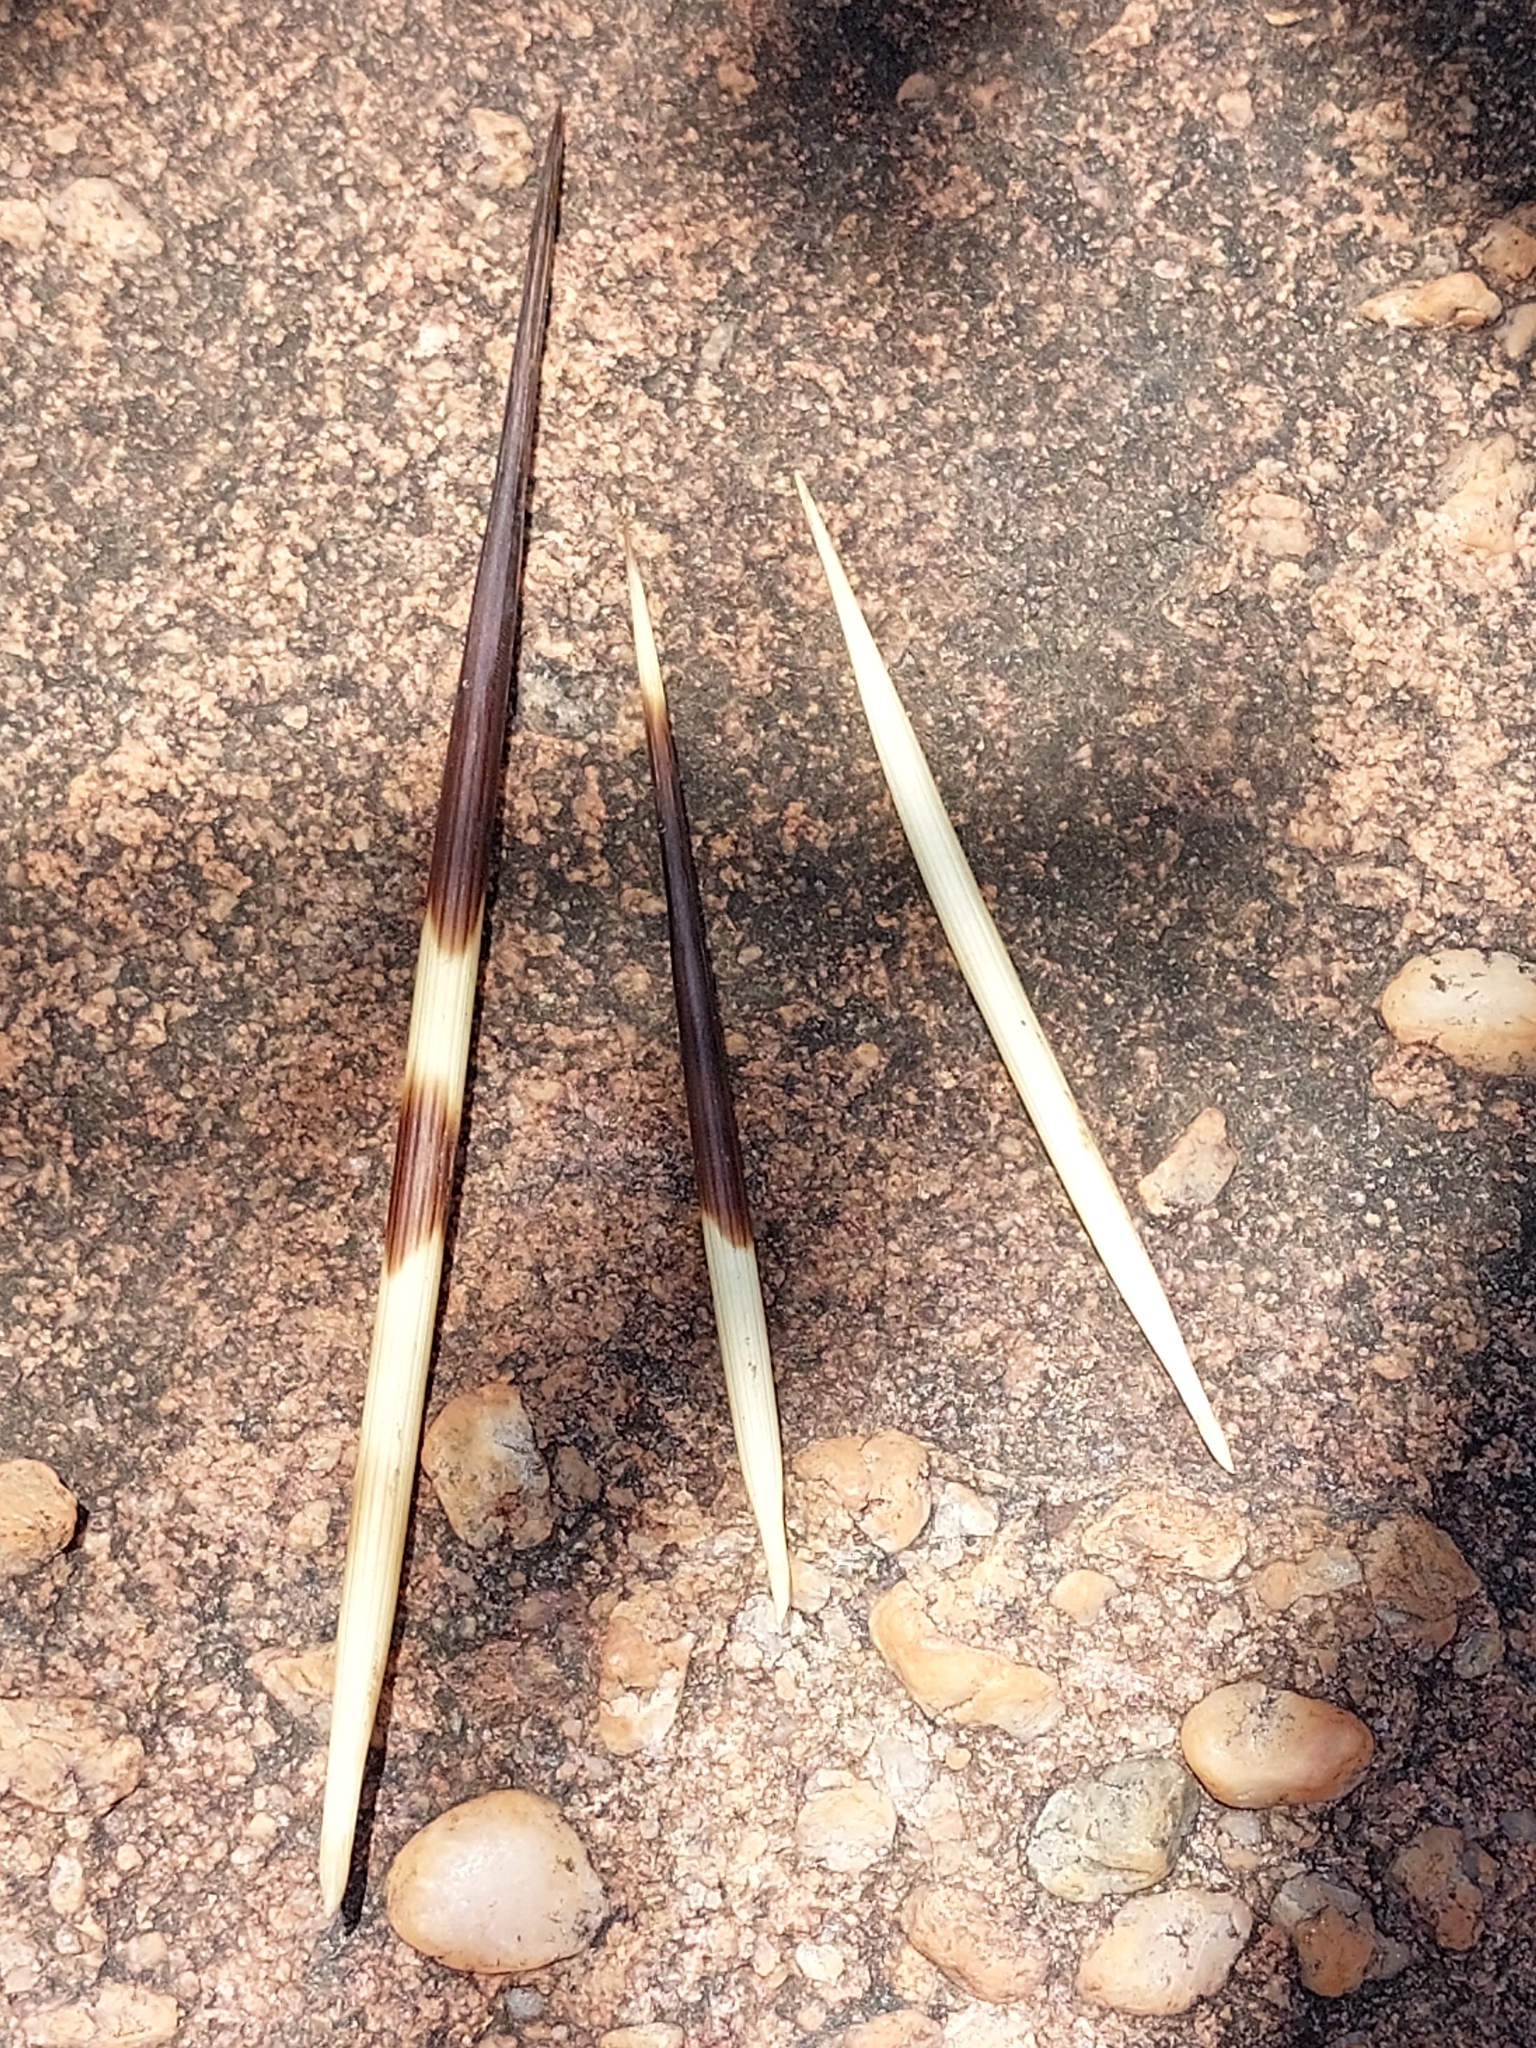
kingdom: Animalia
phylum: Chordata
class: Mammalia
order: Rodentia
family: Hystricidae
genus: Hystrix
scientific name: Hystrix africaeaustralis
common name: Cape porcupine
